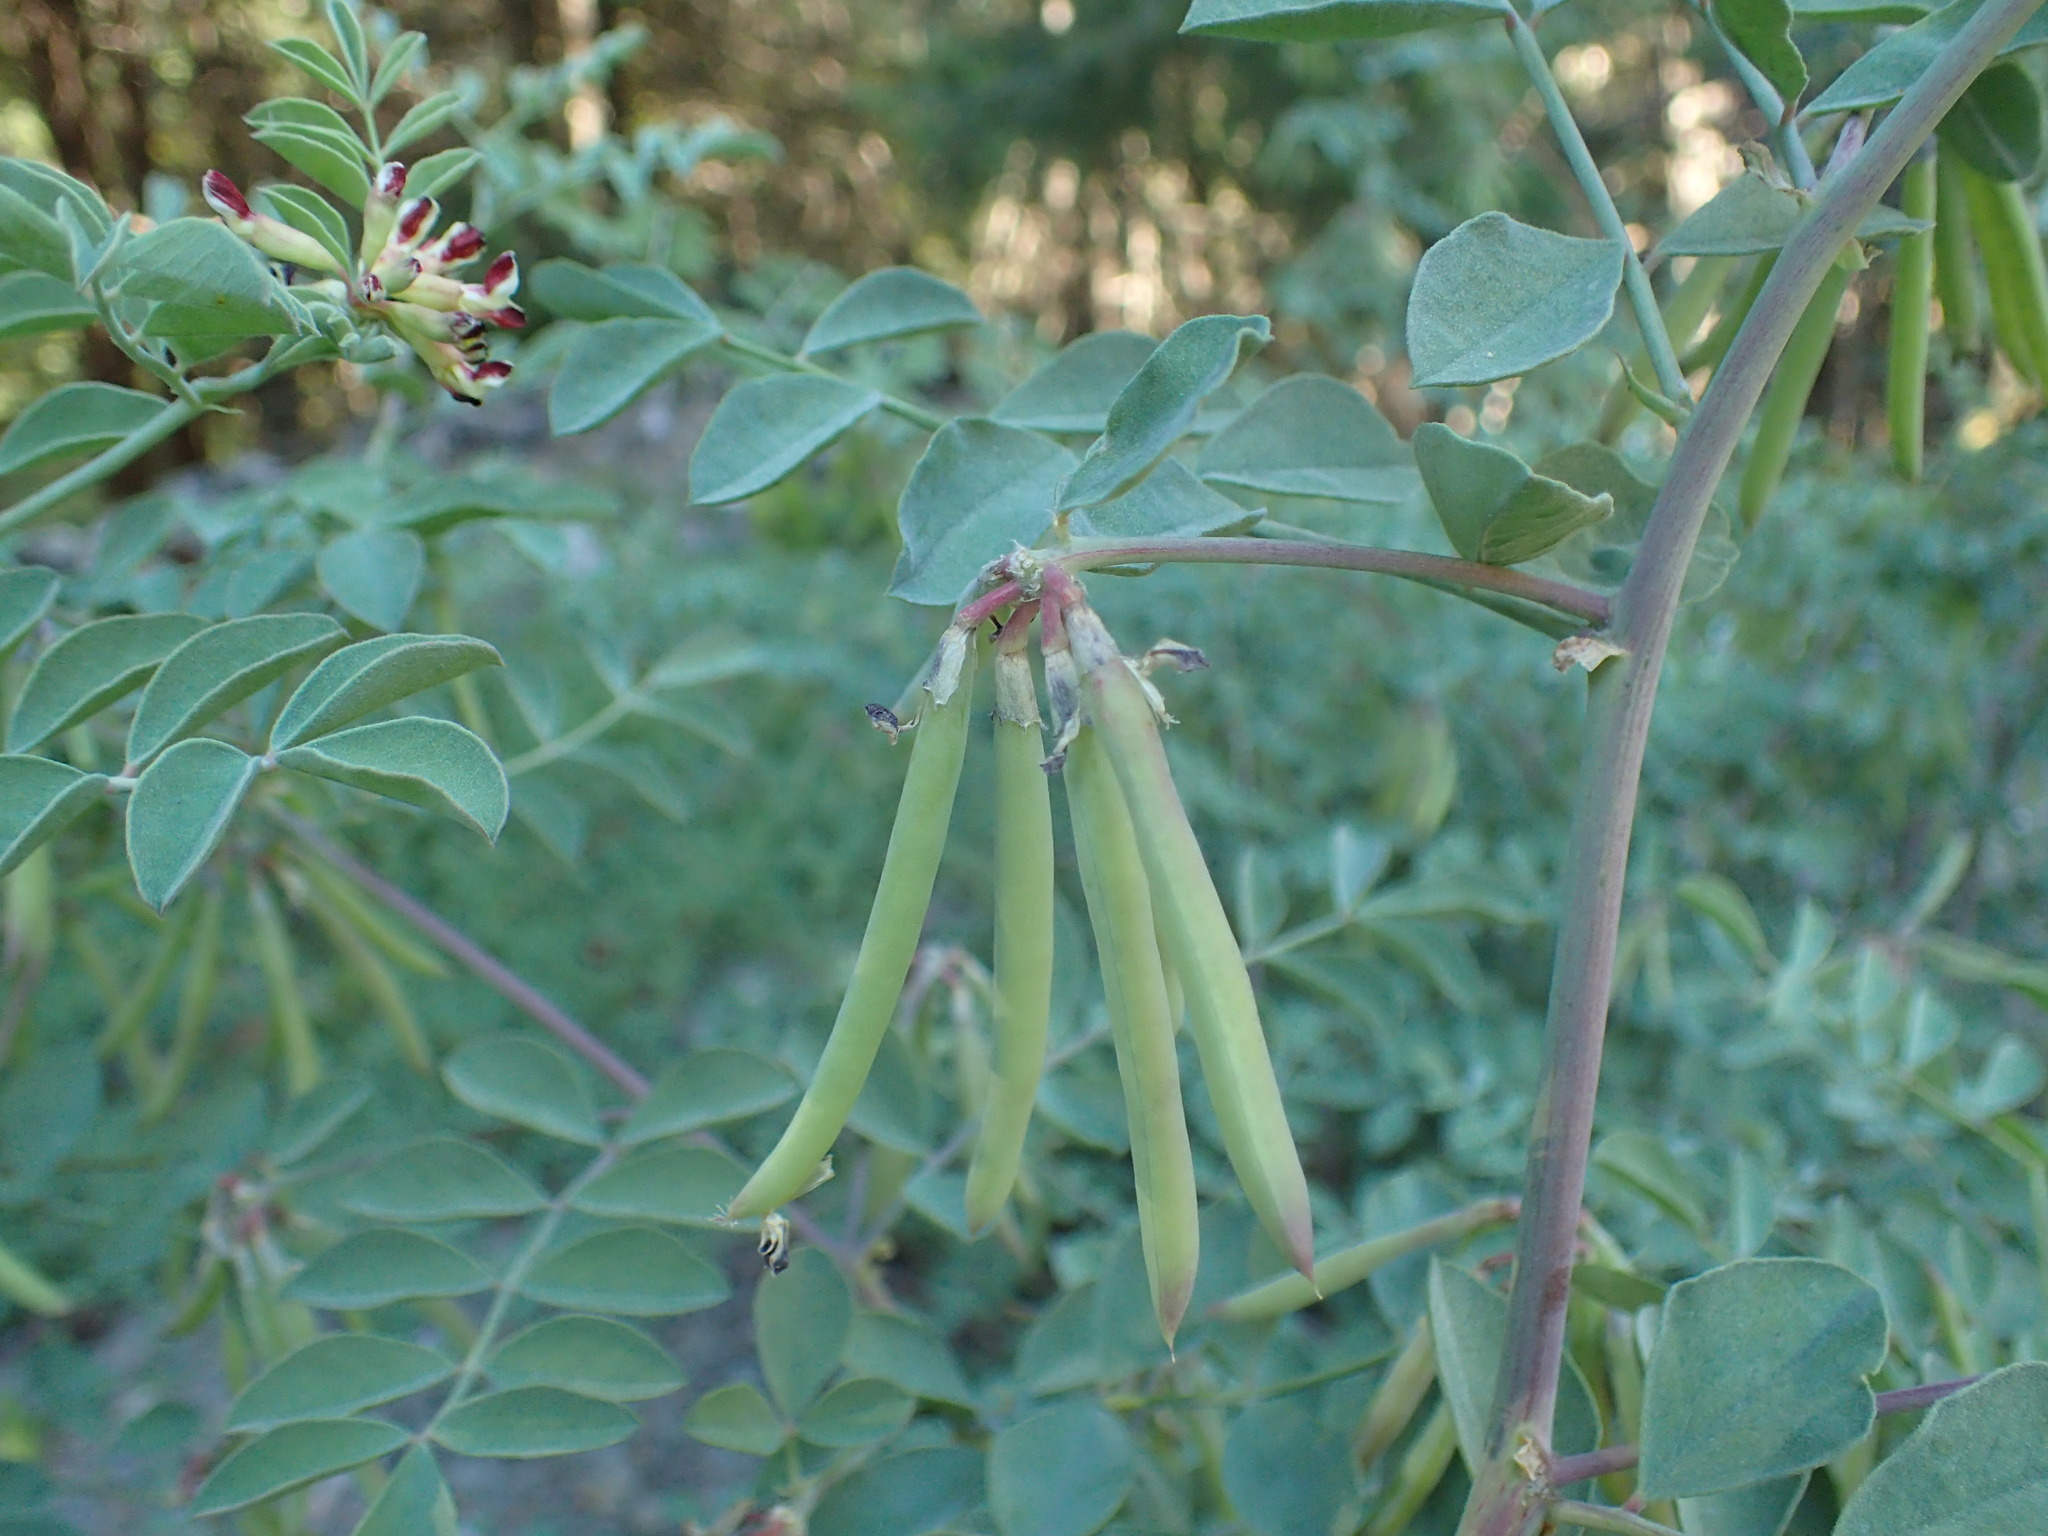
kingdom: Plantae
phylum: Tracheophyta
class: Magnoliopsida
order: Fabales
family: Fabaceae
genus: Hosackia
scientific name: Hosackia crassifolia
